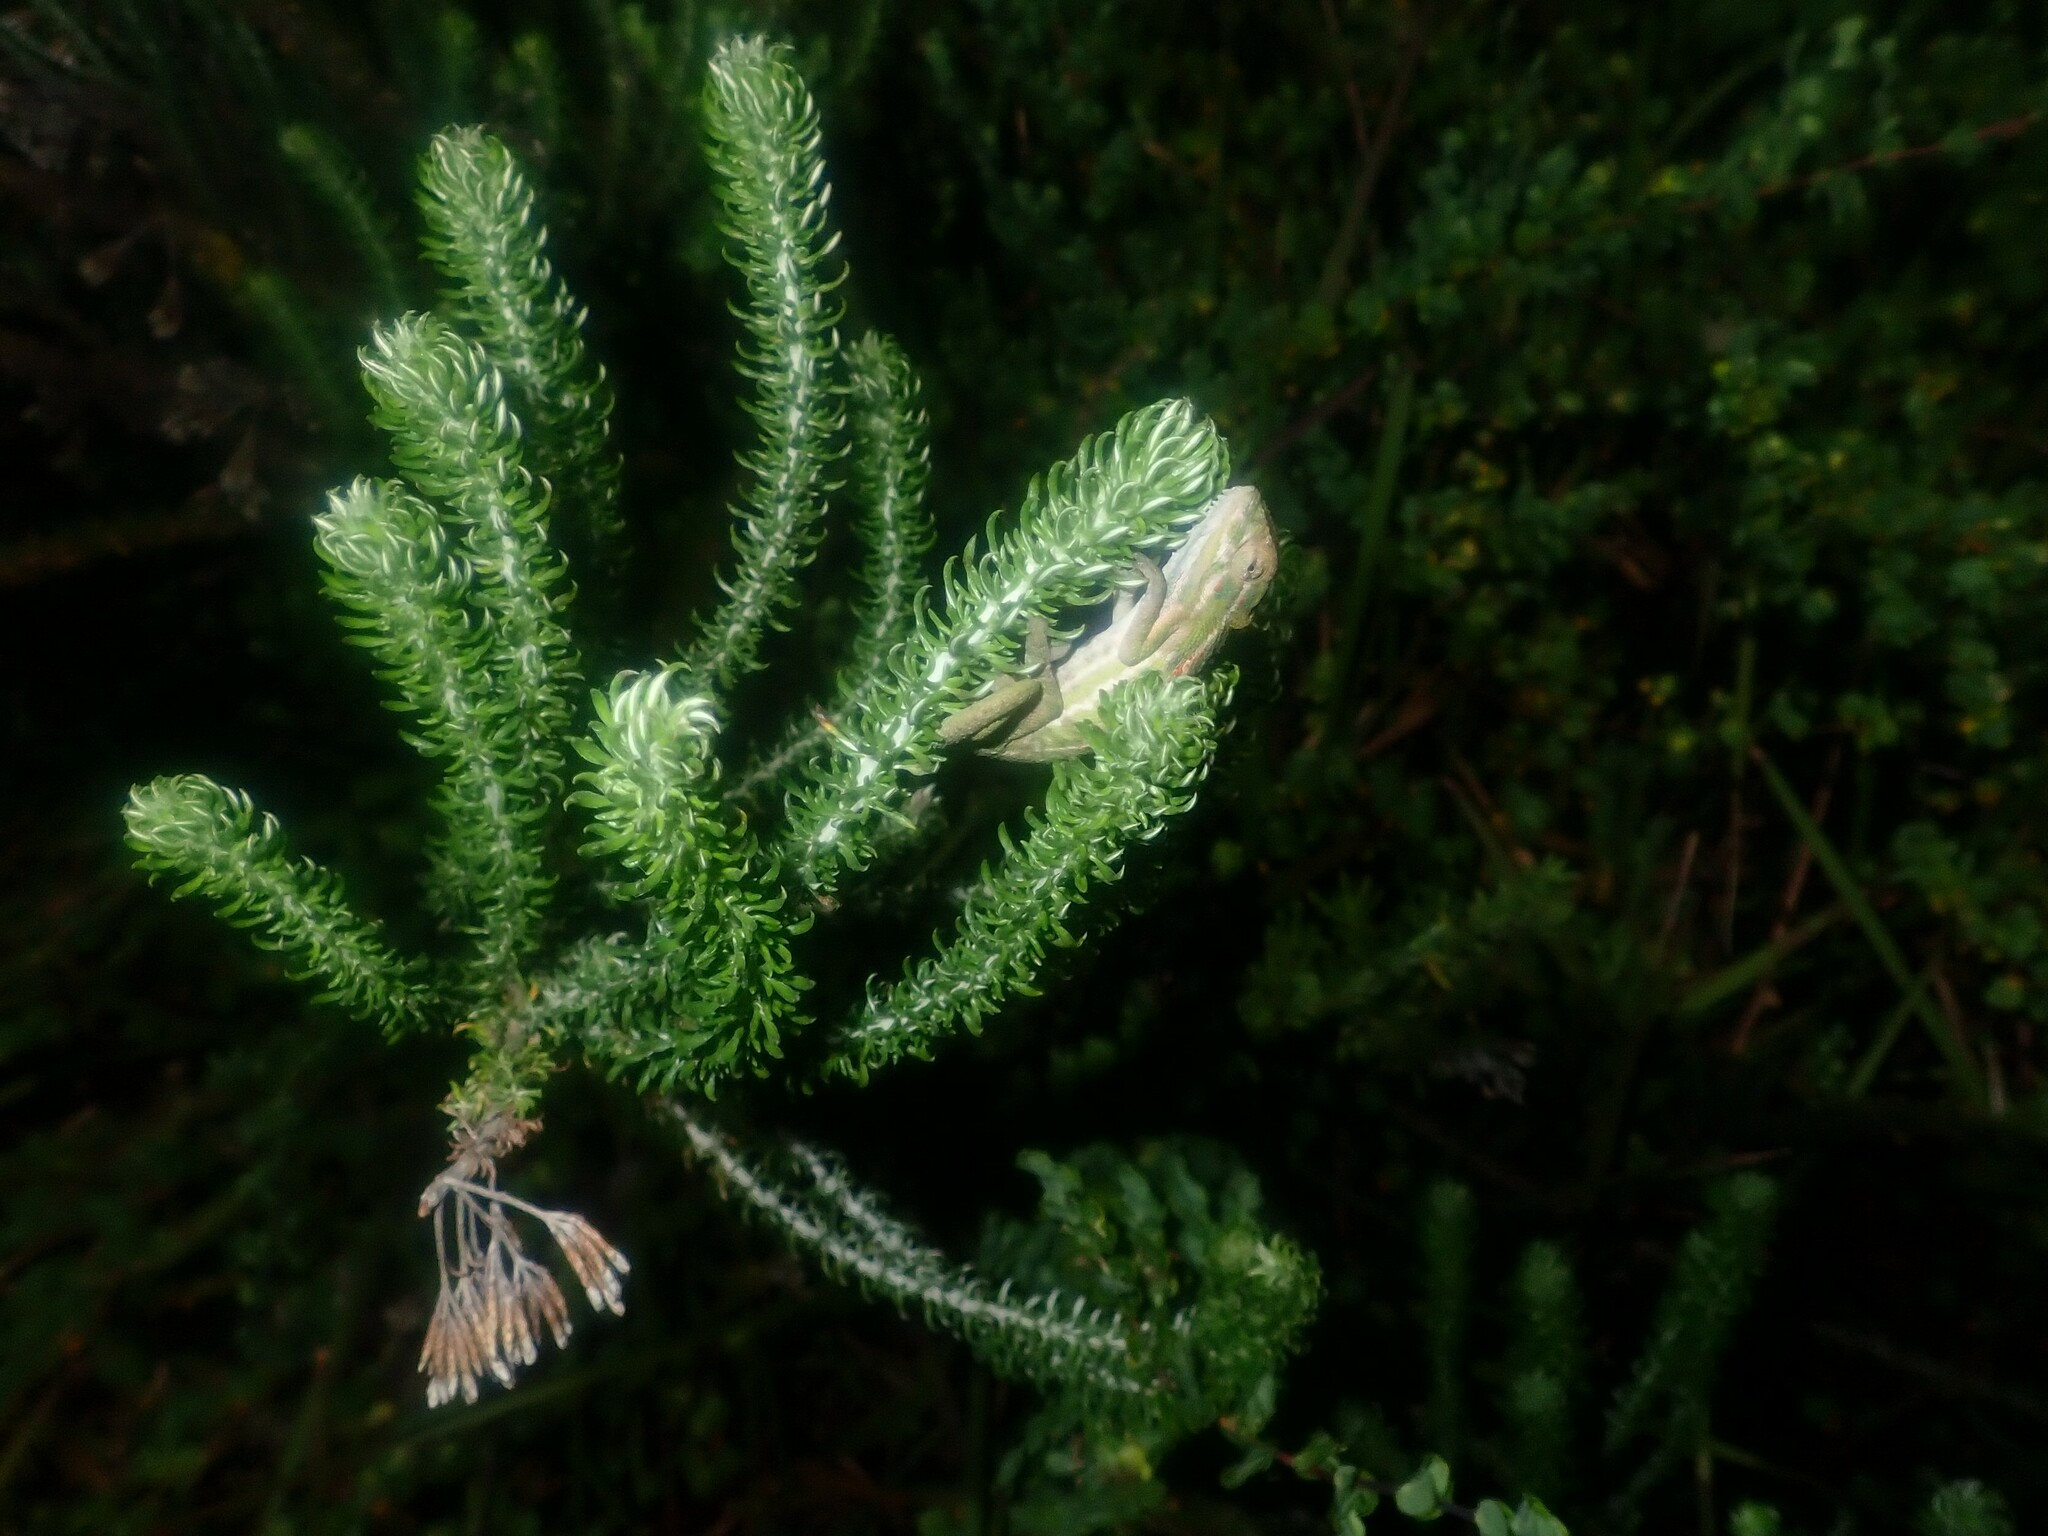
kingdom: Animalia
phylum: Chordata
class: Squamata
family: Chamaeleonidae
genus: Bradypodion
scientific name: Bradypodion pumilum
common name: Cape dwarf chameleon
